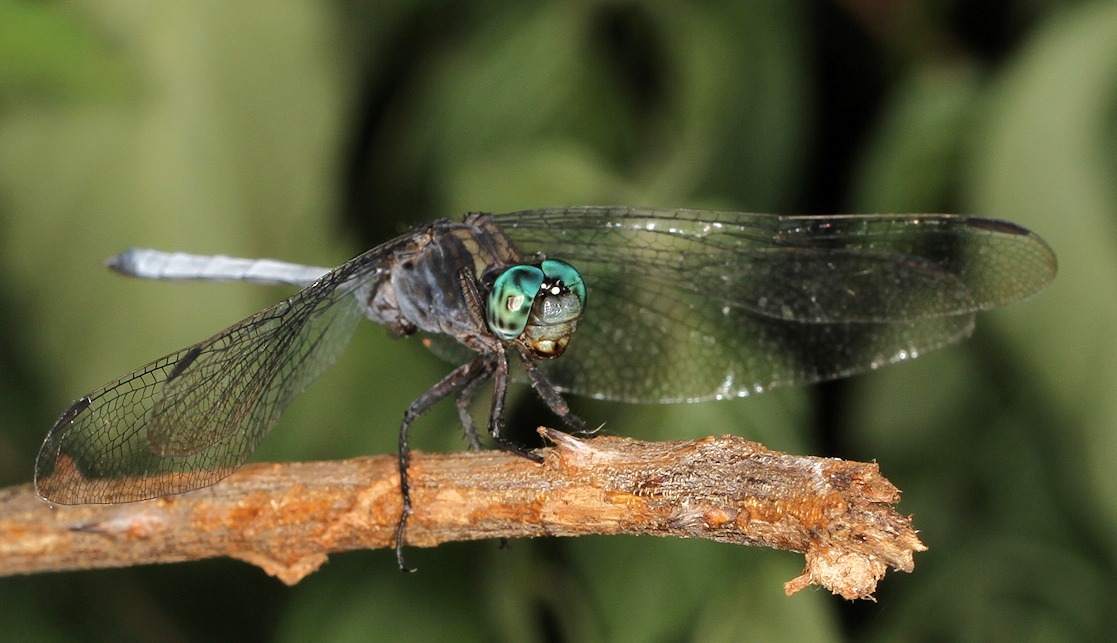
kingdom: Animalia
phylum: Arthropoda
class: Insecta
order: Odonata
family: Libellulidae
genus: Orthetrum
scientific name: Orthetrum julia
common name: Julia skimmer
